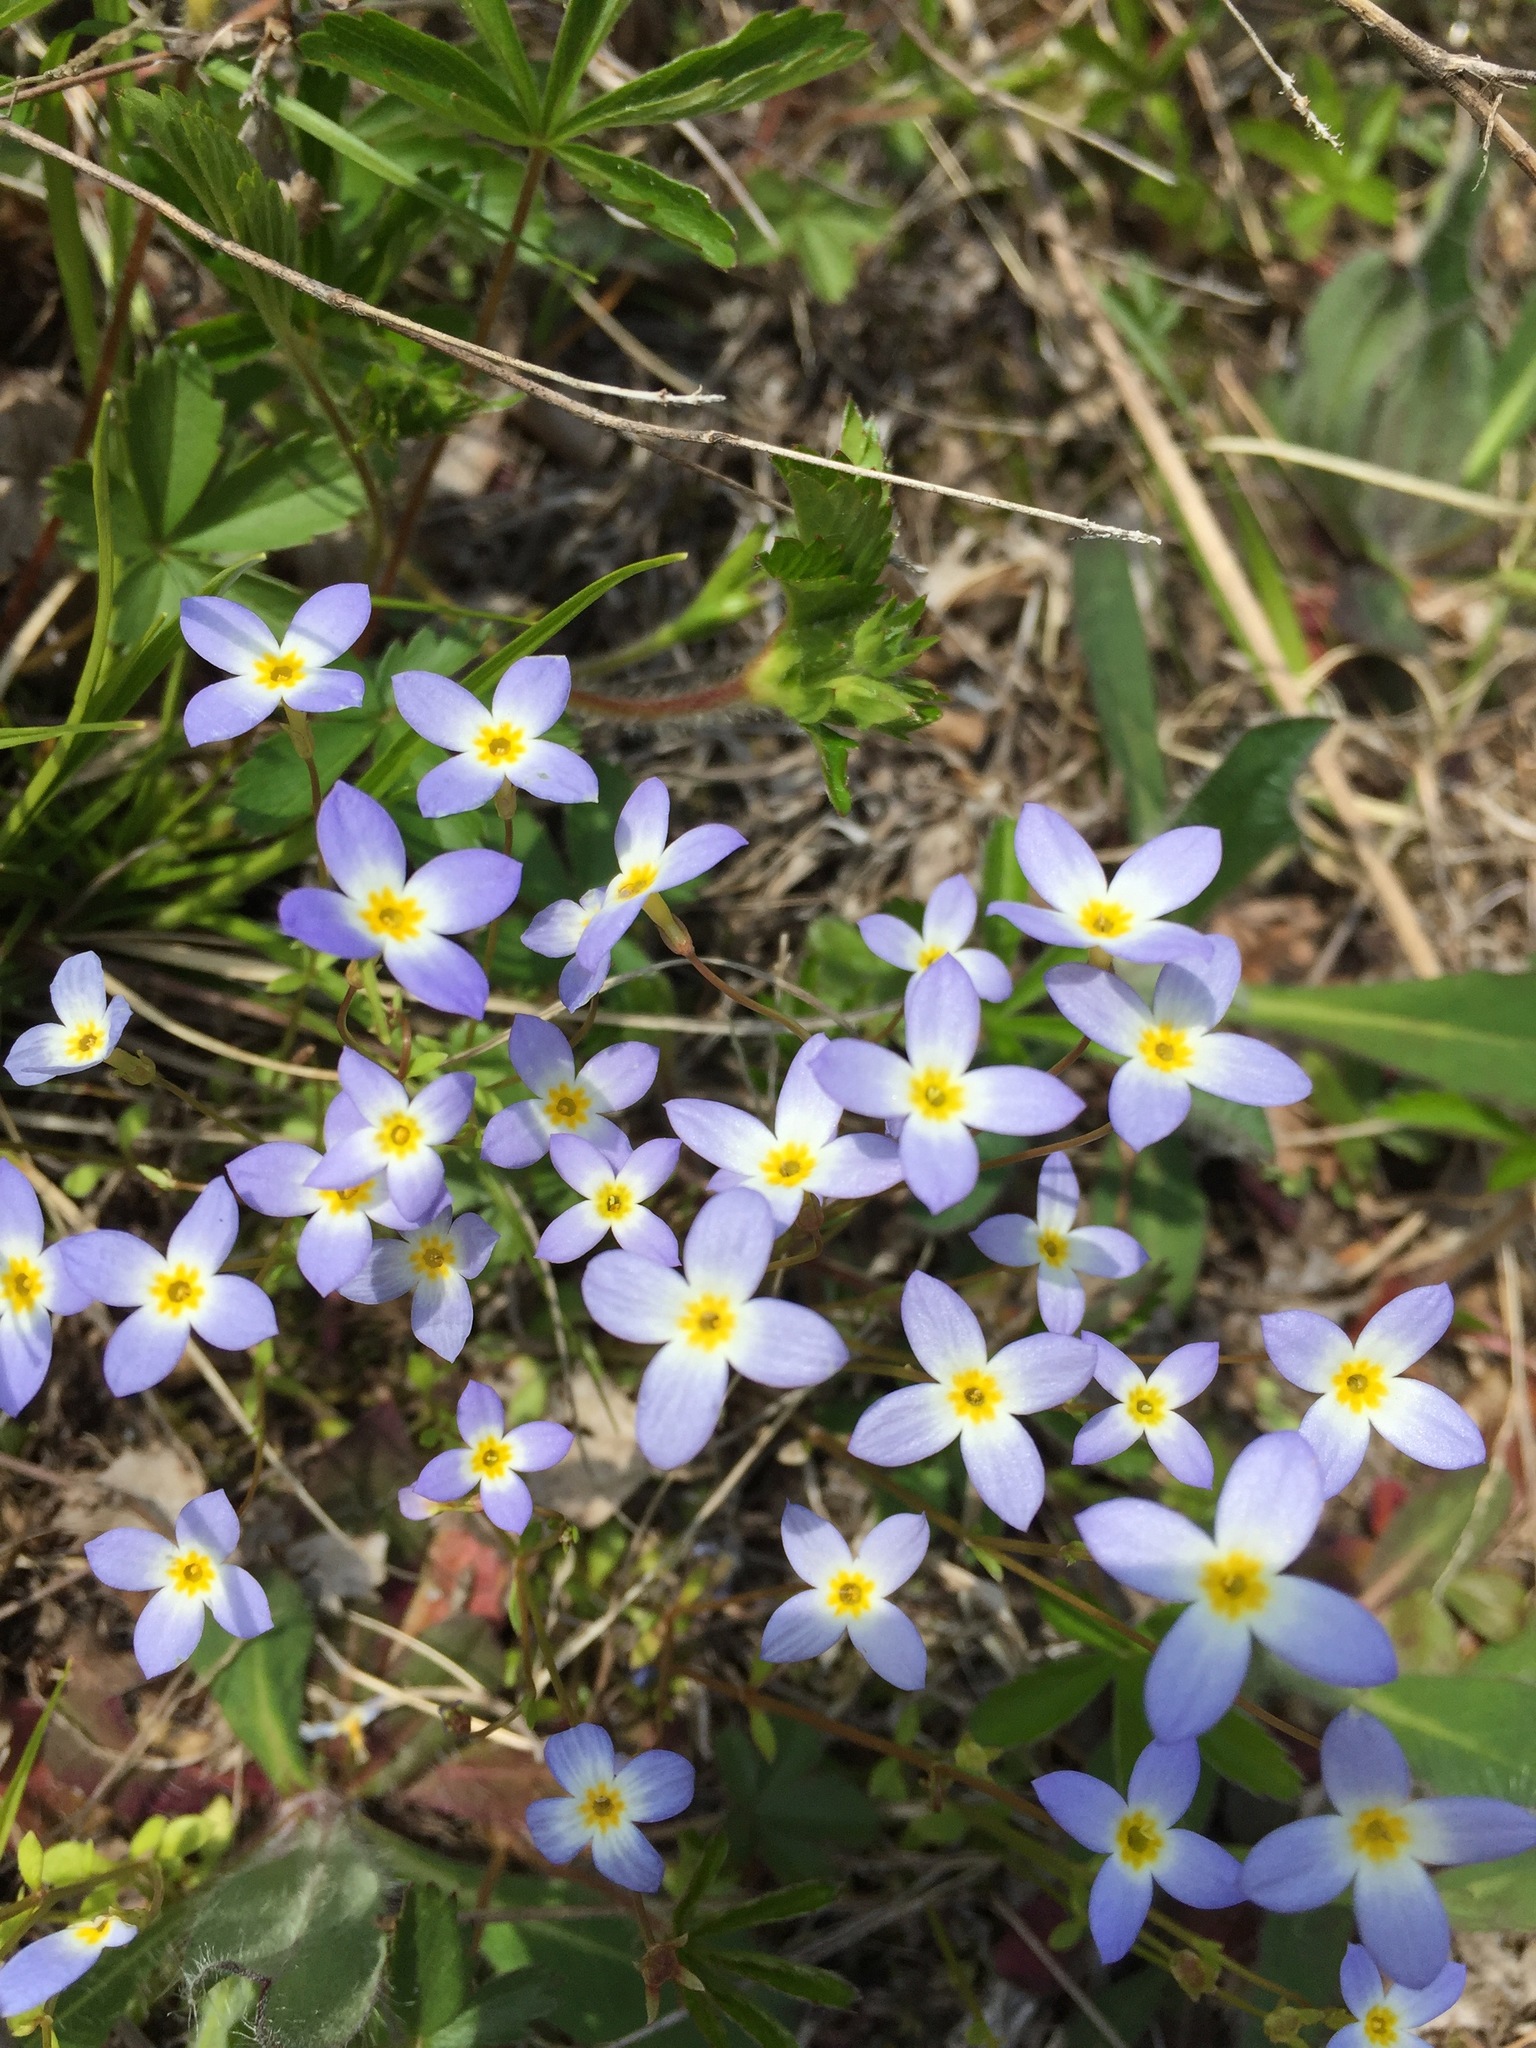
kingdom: Plantae
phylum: Tracheophyta
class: Magnoliopsida
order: Gentianales
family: Rubiaceae
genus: Houstonia
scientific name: Houstonia caerulea
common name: Bluets
